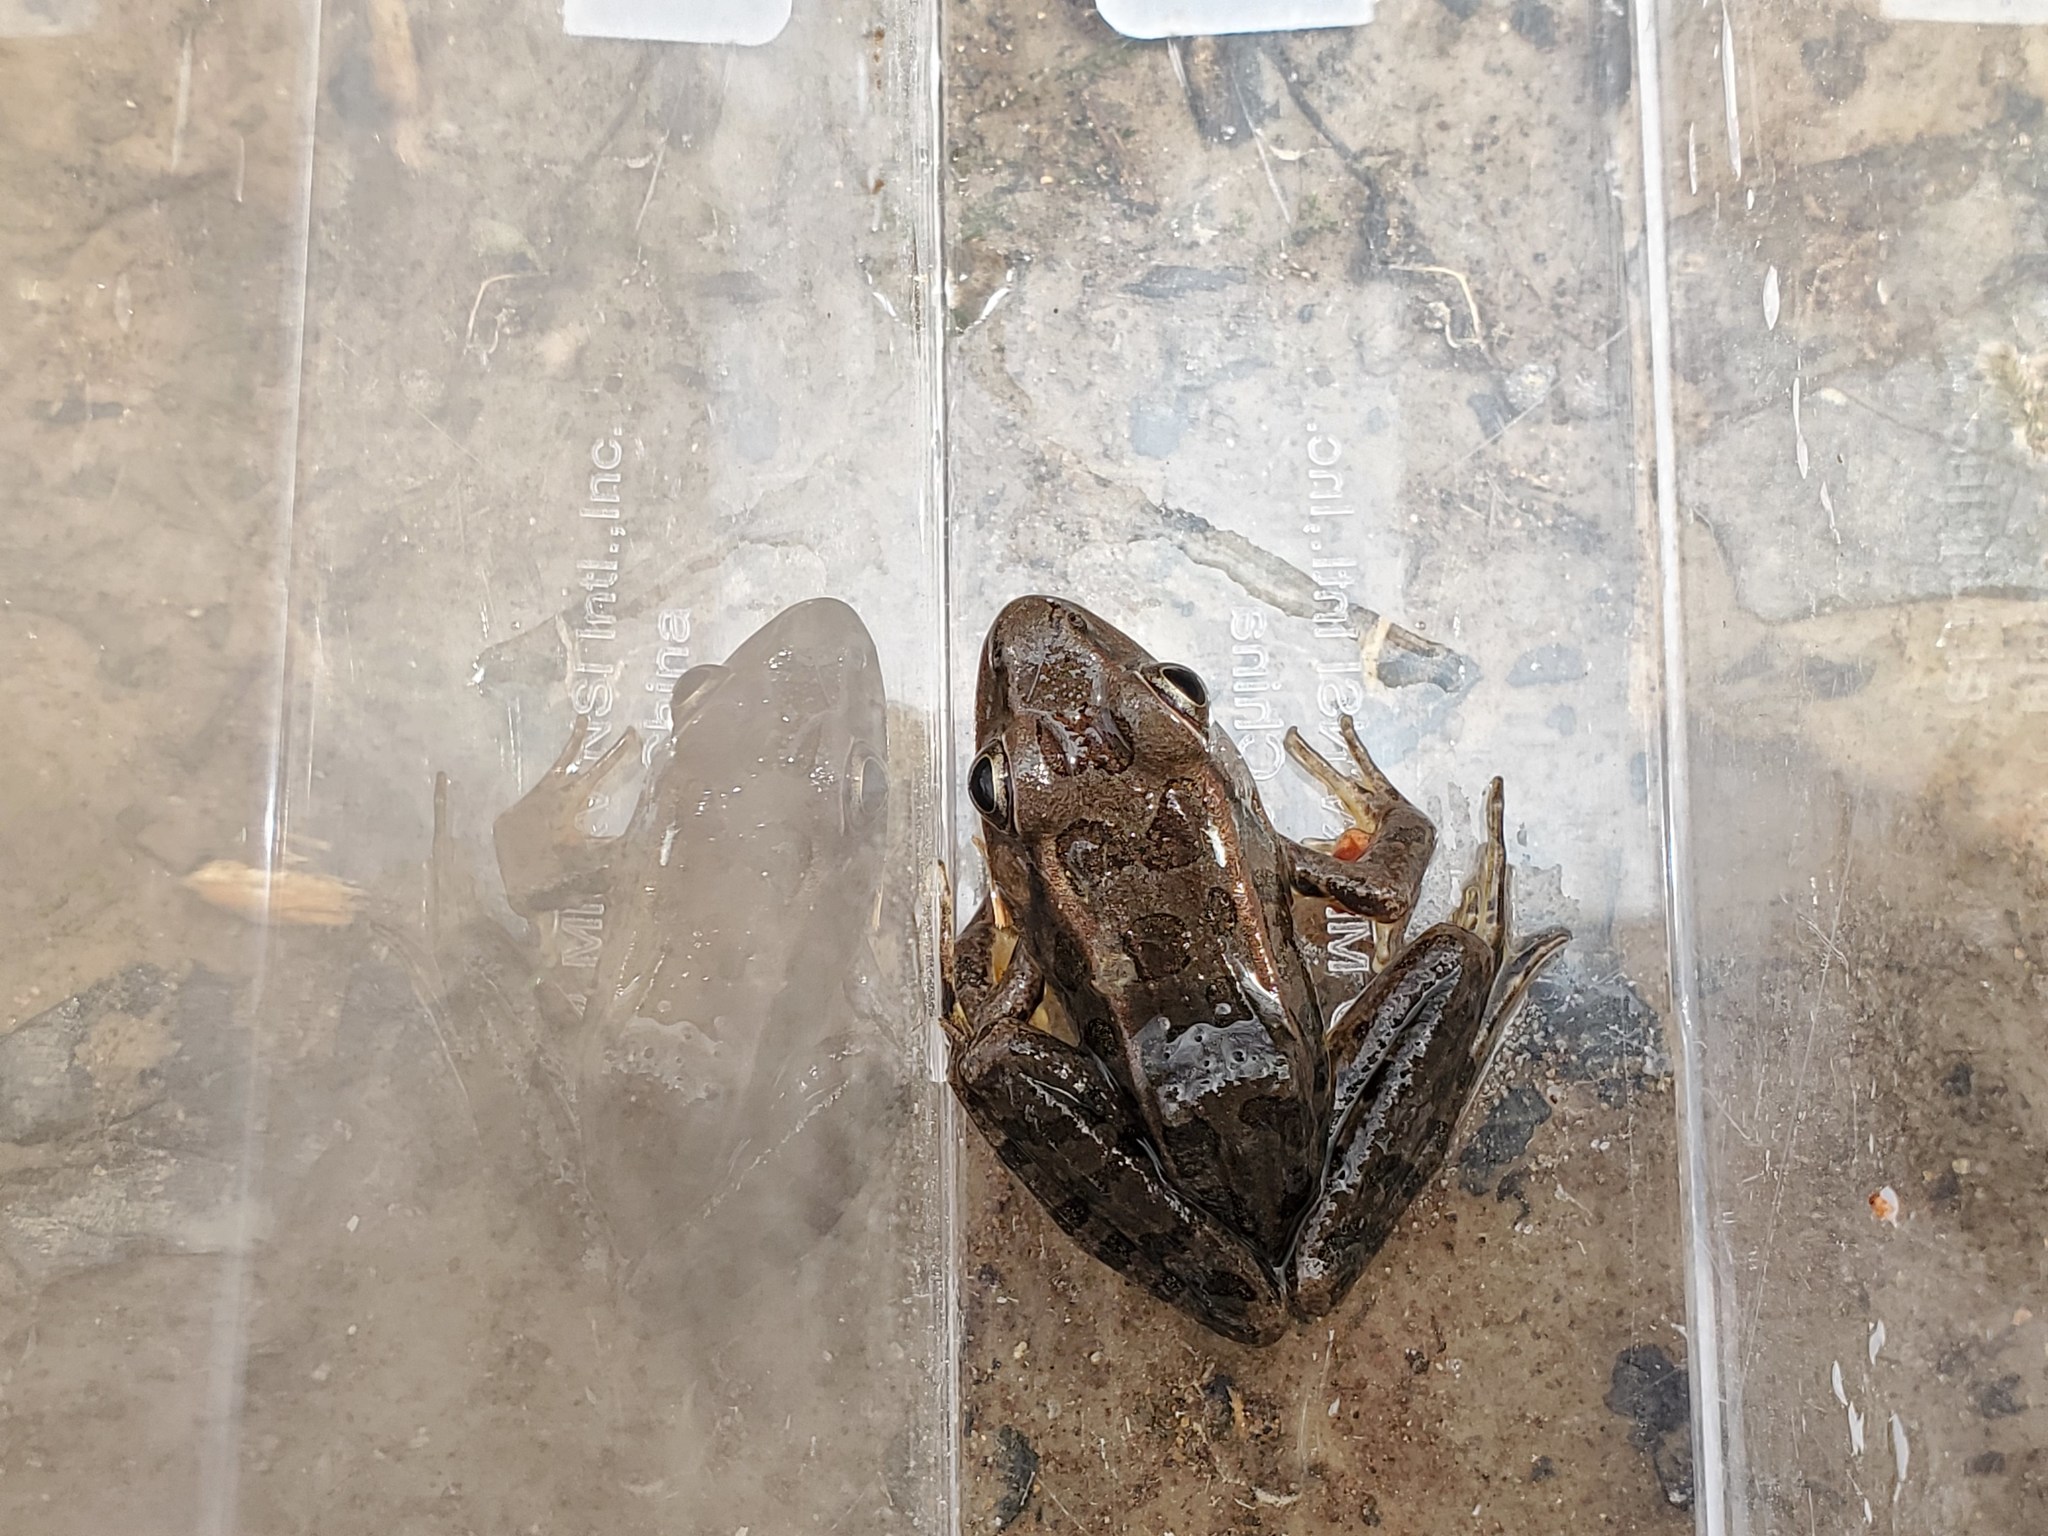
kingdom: Animalia
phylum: Chordata
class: Amphibia
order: Anura
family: Ranidae
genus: Lithobates
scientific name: Lithobates sphenocephalus
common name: Southern leopard frog
